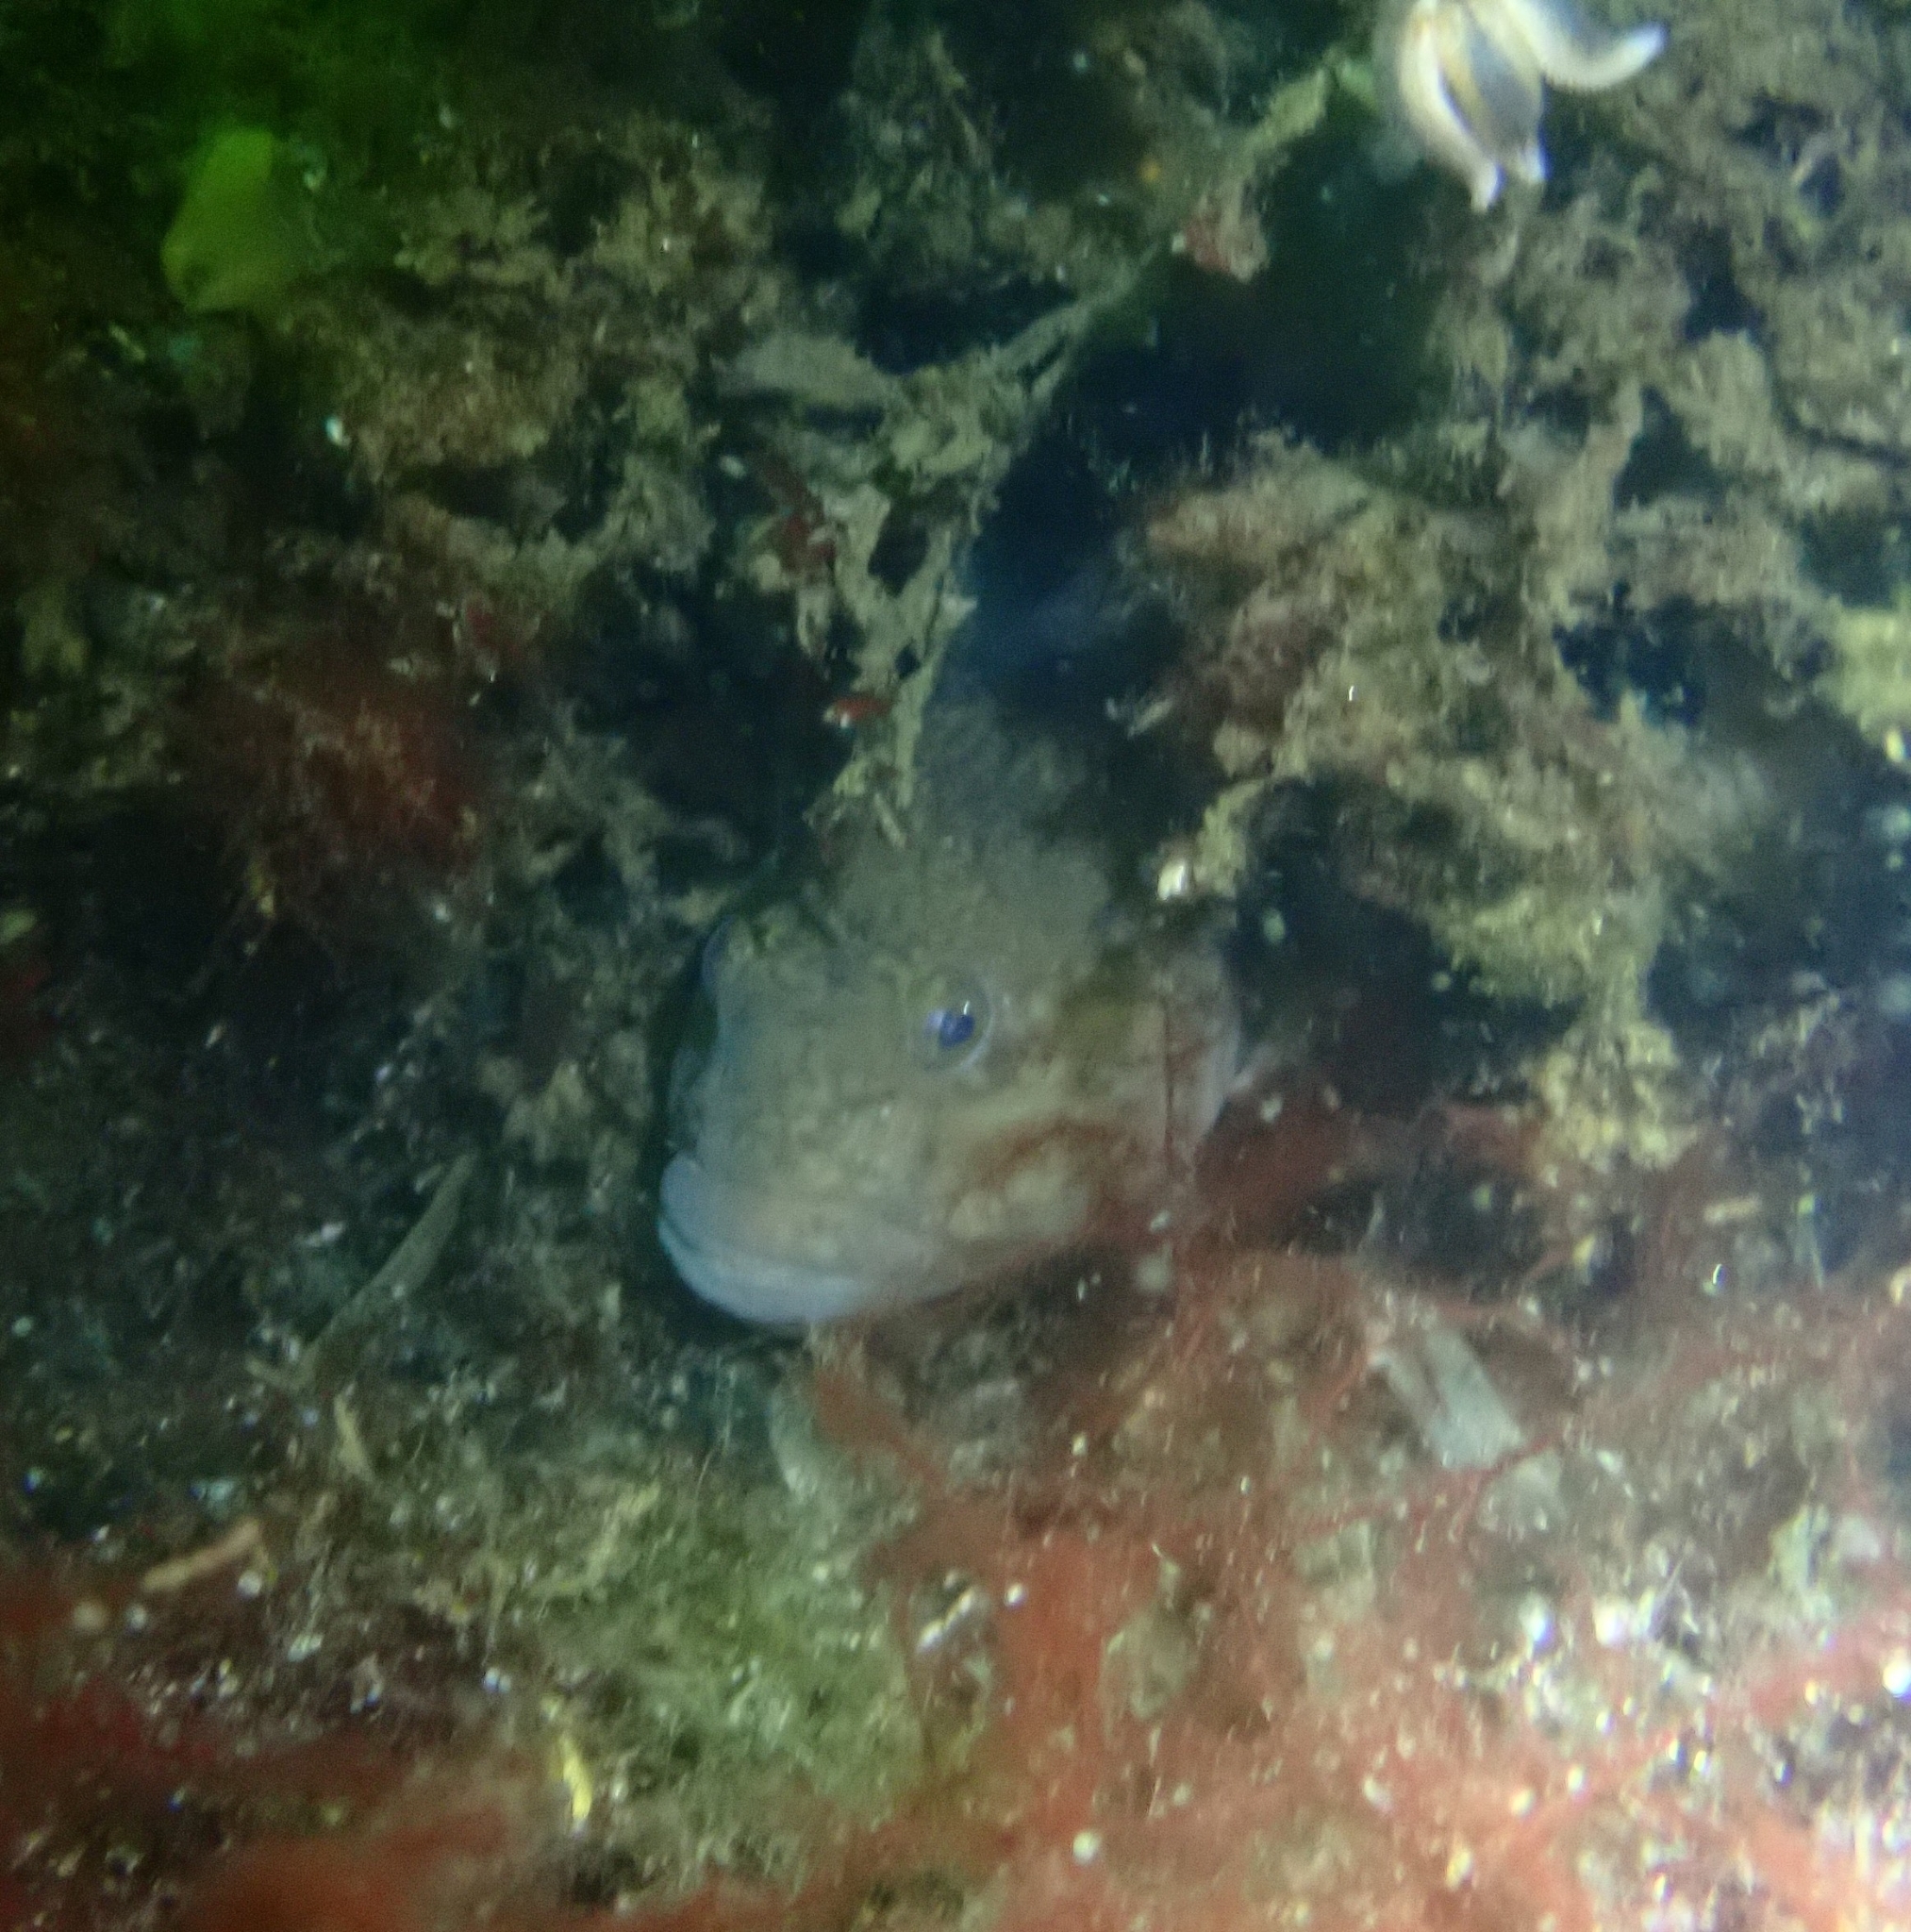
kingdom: Animalia
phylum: Chordata
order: Perciformes
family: Gobiidae
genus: Neogobius
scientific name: Neogobius melanostomus
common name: Round goby
